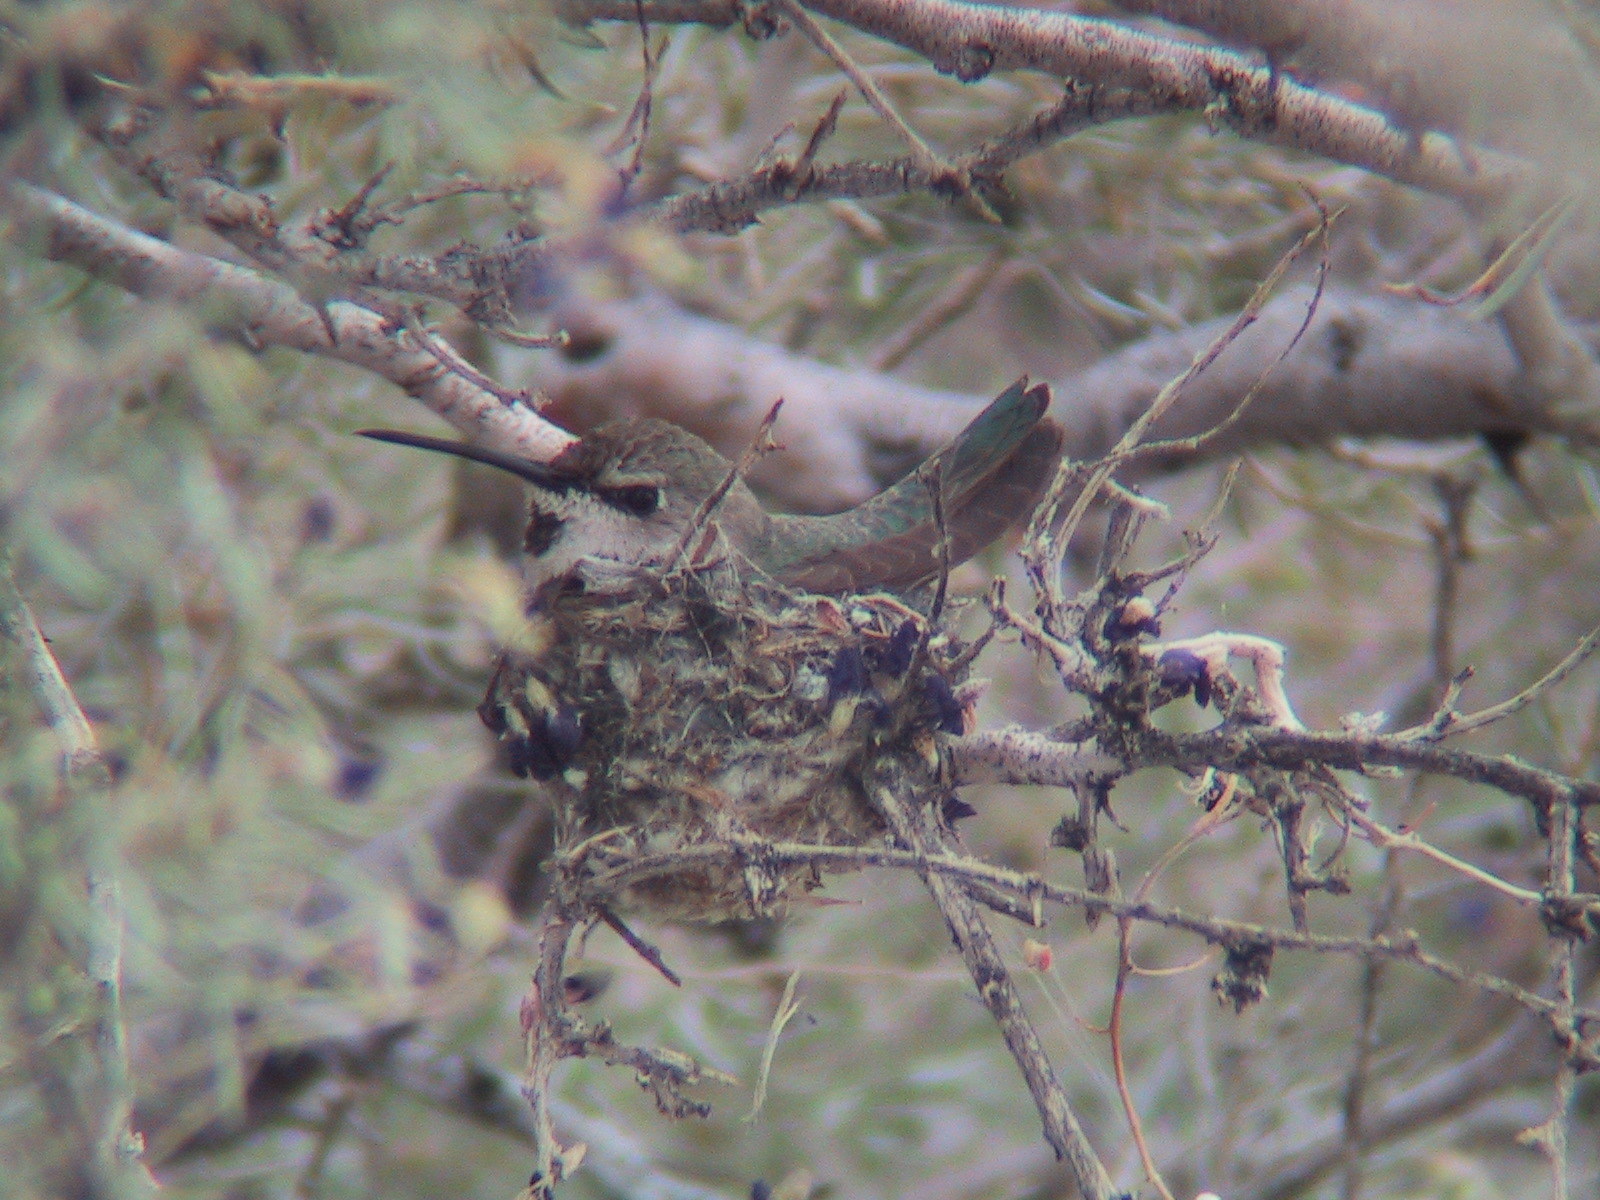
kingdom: Animalia
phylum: Chordata
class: Aves
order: Apodiformes
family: Trochilidae
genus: Calypte
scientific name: Calypte costae
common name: Costa's hummingbird
